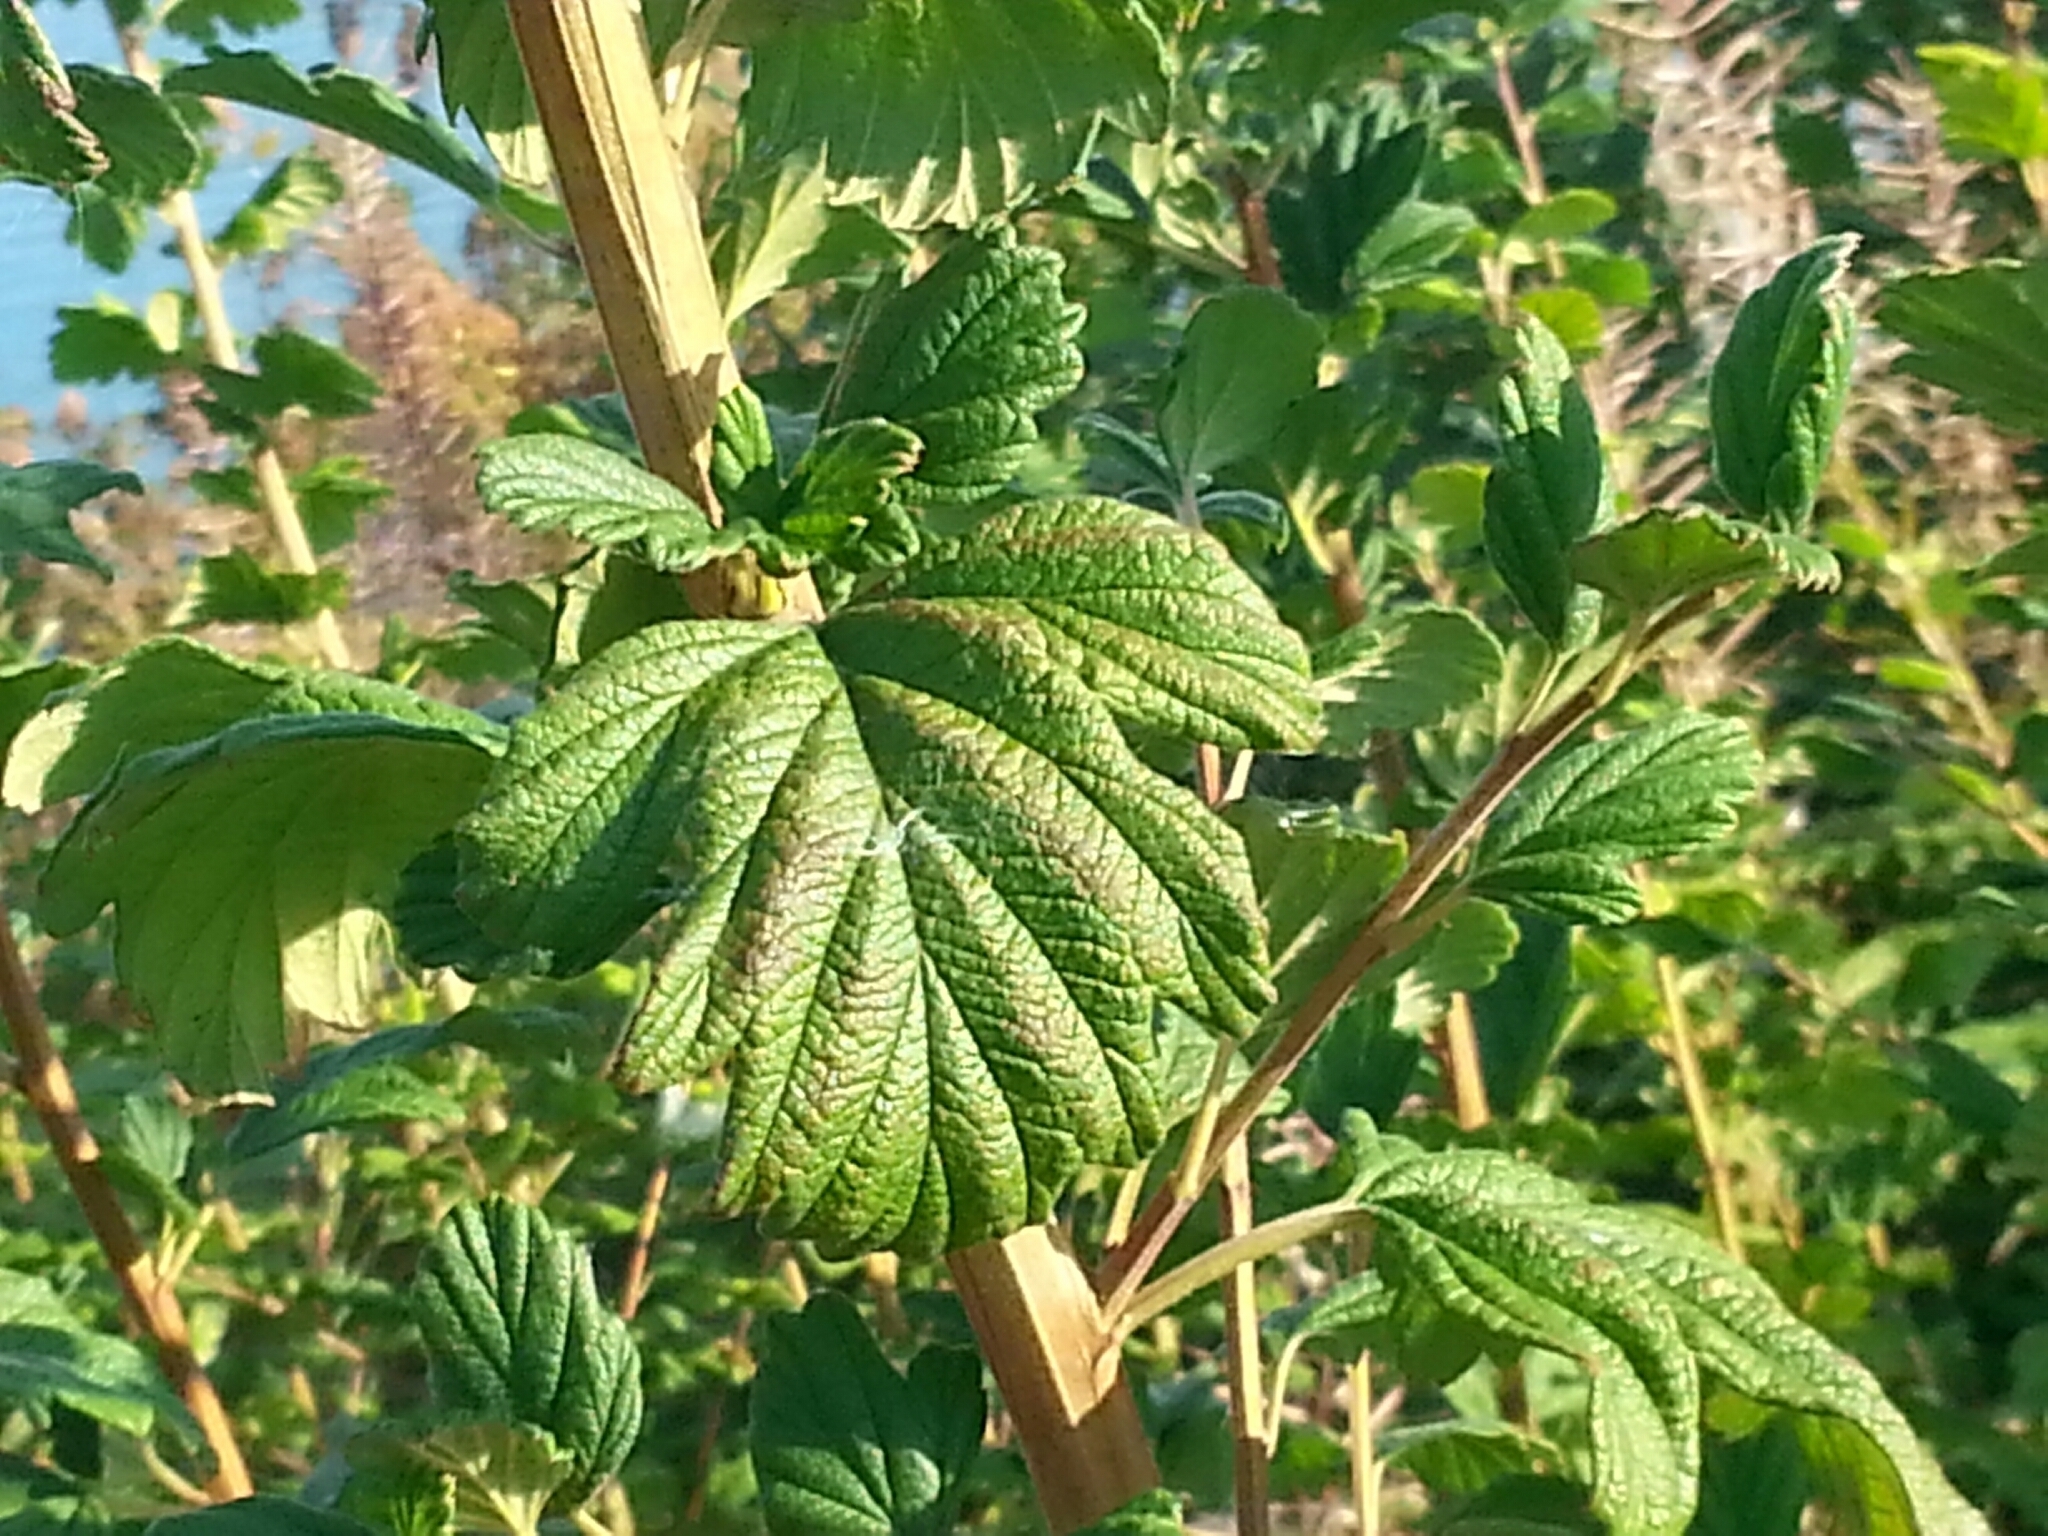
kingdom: Plantae
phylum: Tracheophyta
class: Magnoliopsida
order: Rosales
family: Rosaceae
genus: Holodiscus
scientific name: Holodiscus discolor
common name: Oceanspray
